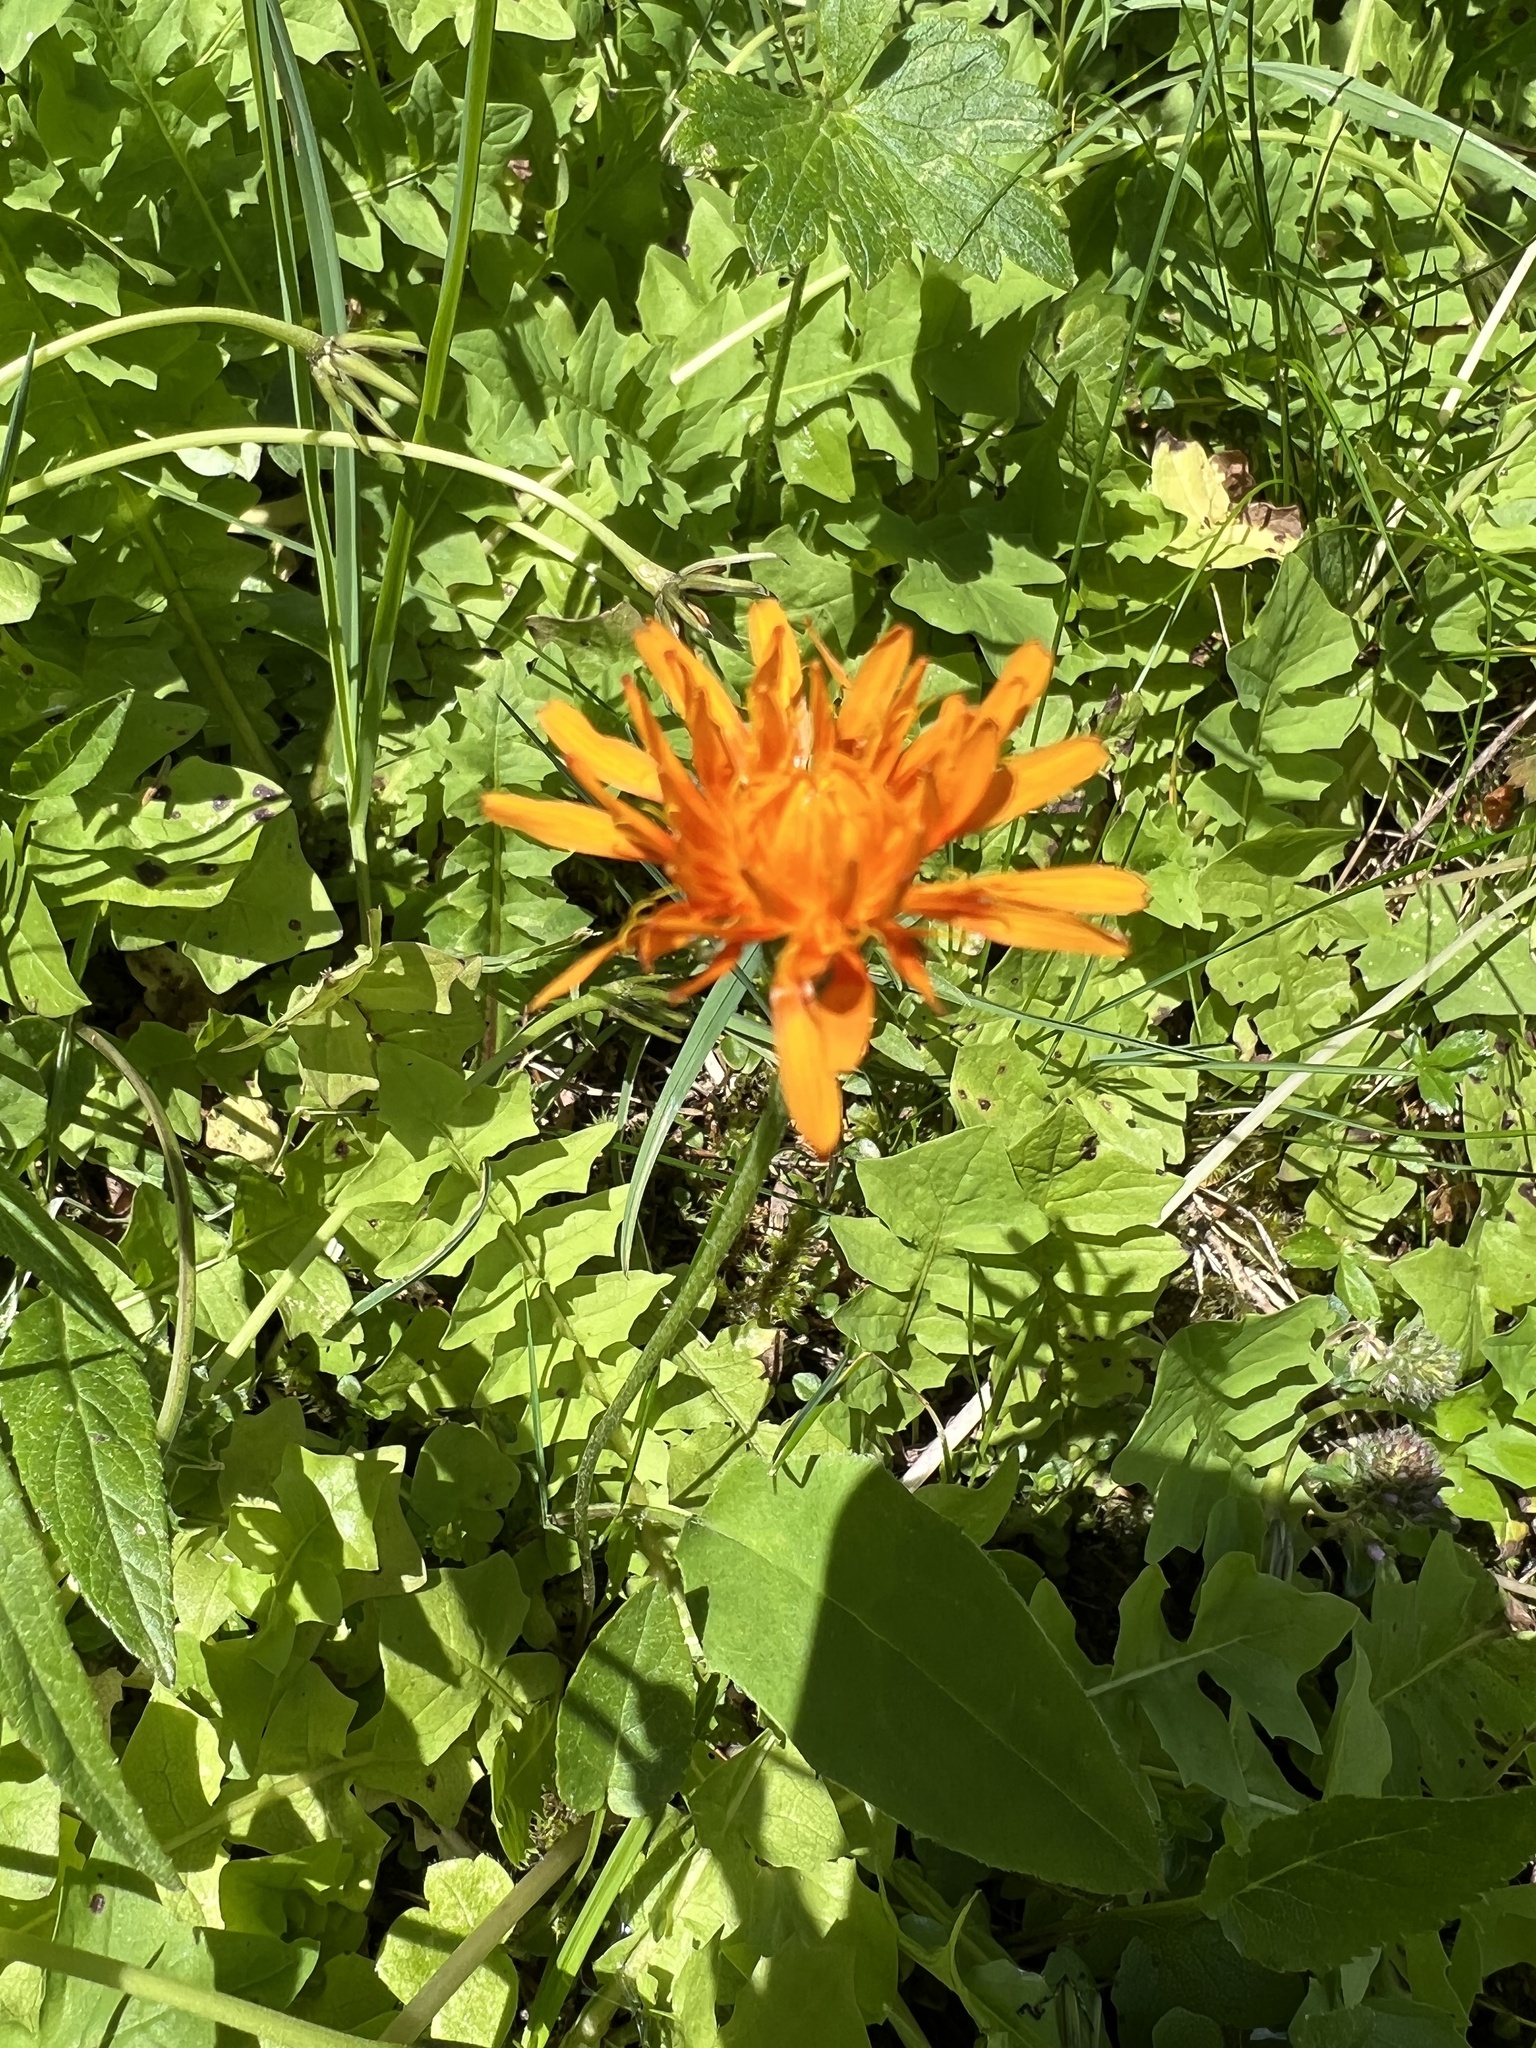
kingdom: Plantae
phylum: Tracheophyta
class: Magnoliopsida
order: Asterales
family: Asteraceae
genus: Crepis
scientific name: Crepis aurea
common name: Golden hawk's-beard
